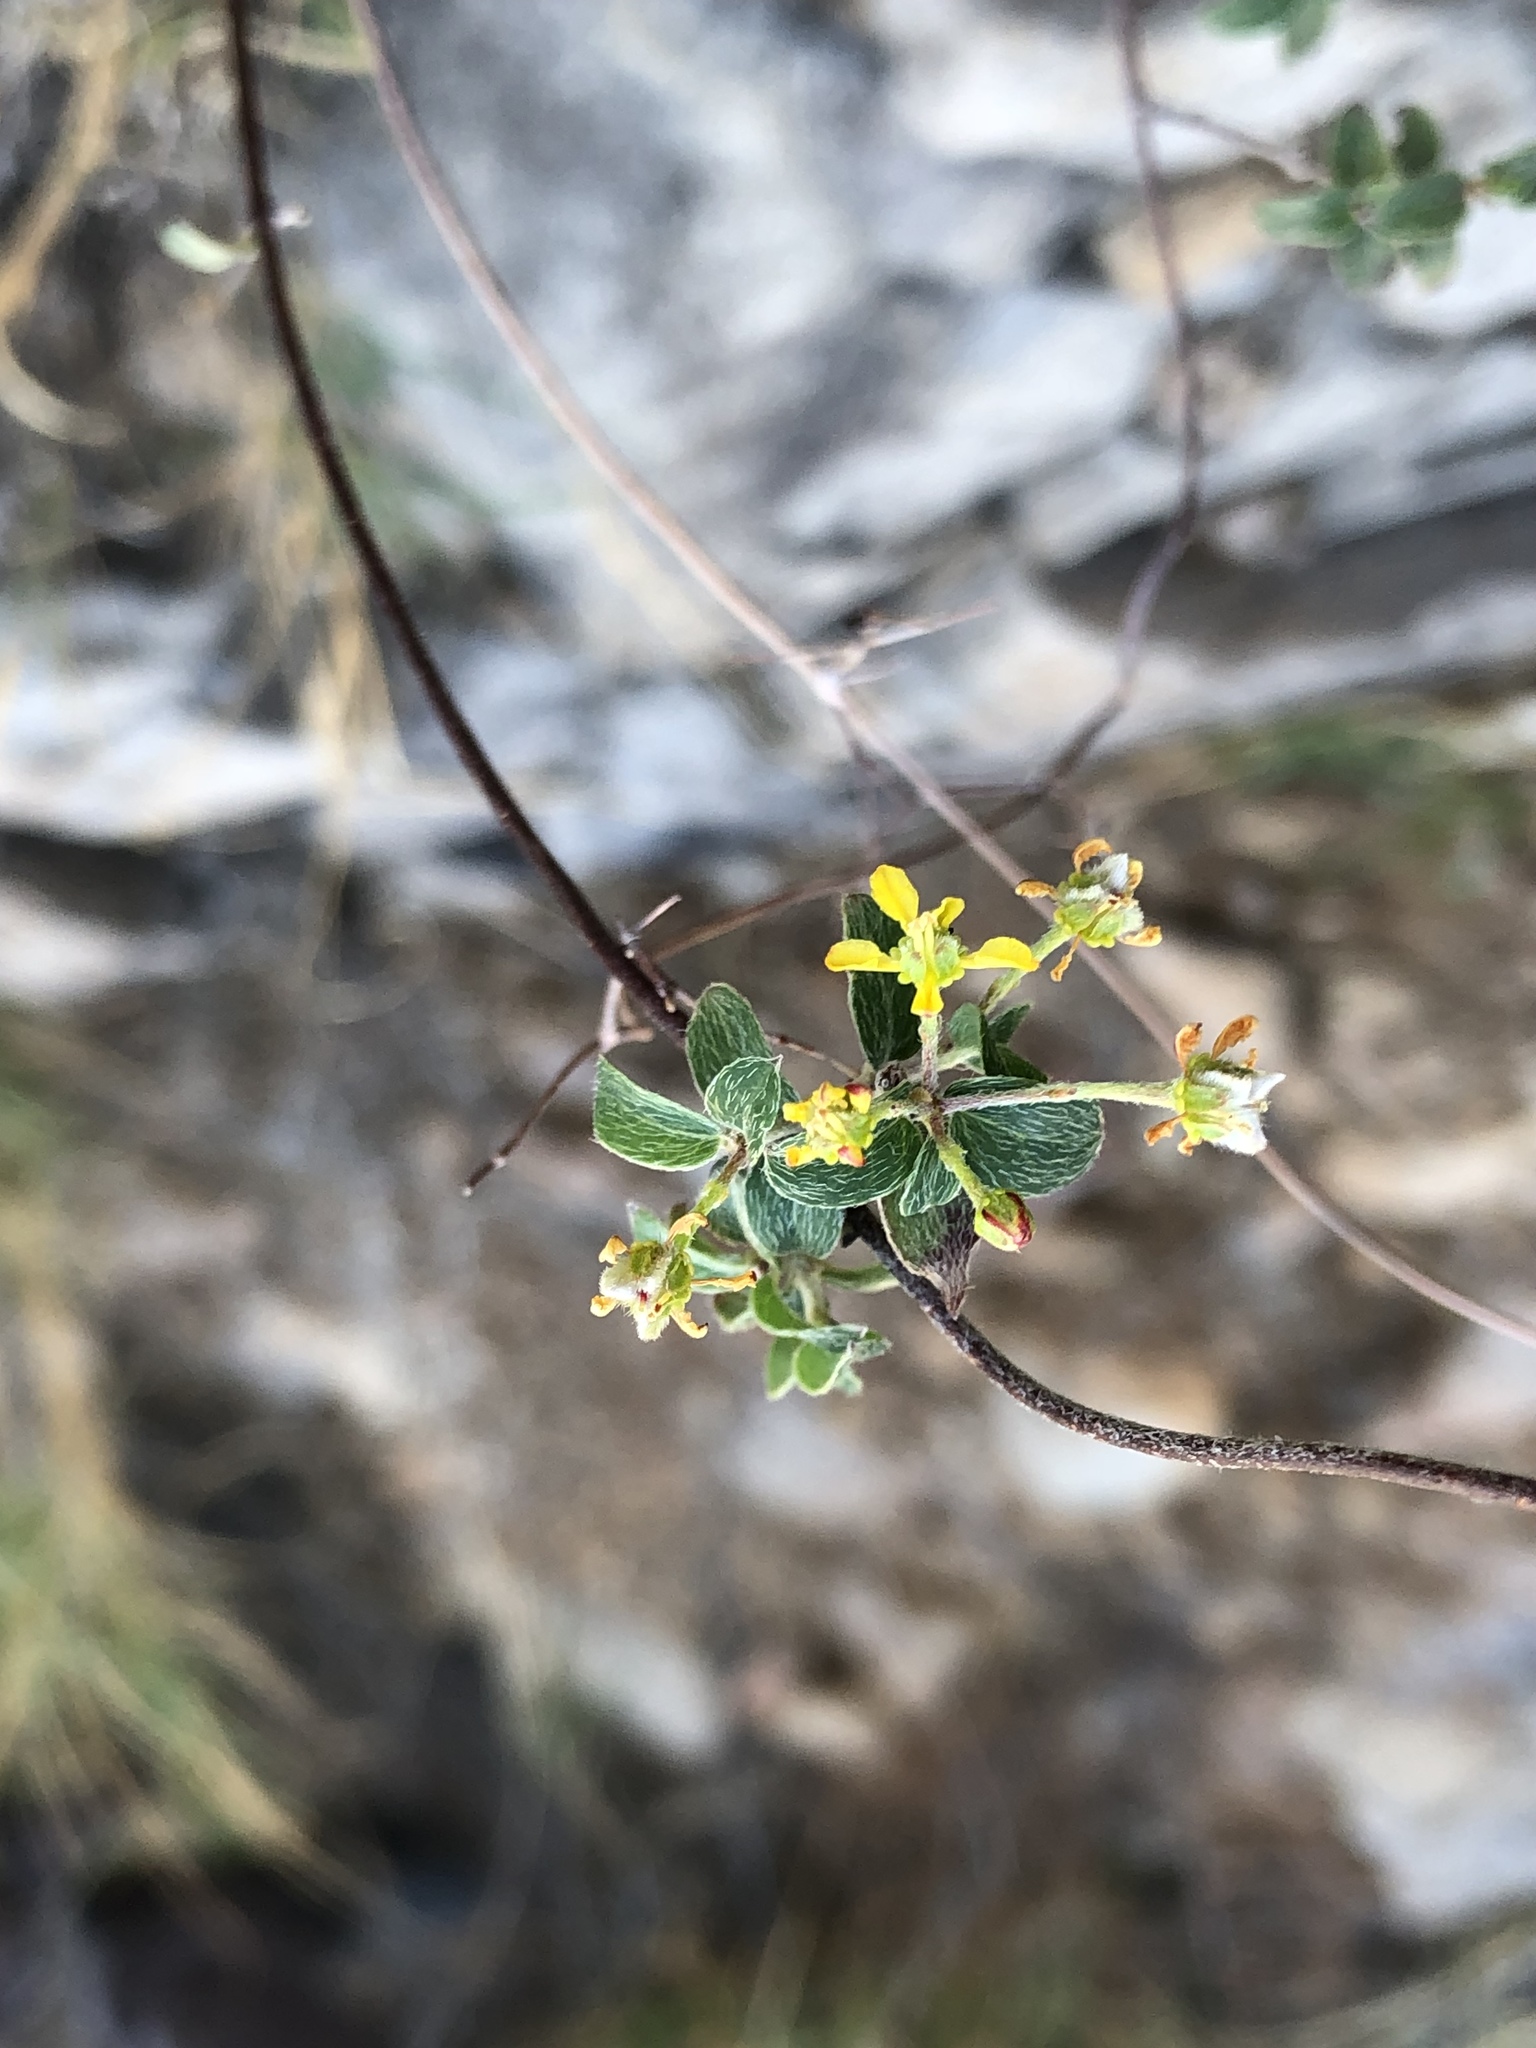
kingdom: Plantae
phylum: Tracheophyta
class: Magnoliopsida
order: Malpighiales
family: Malpighiaceae
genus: Cottsia
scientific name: Cottsia californica
